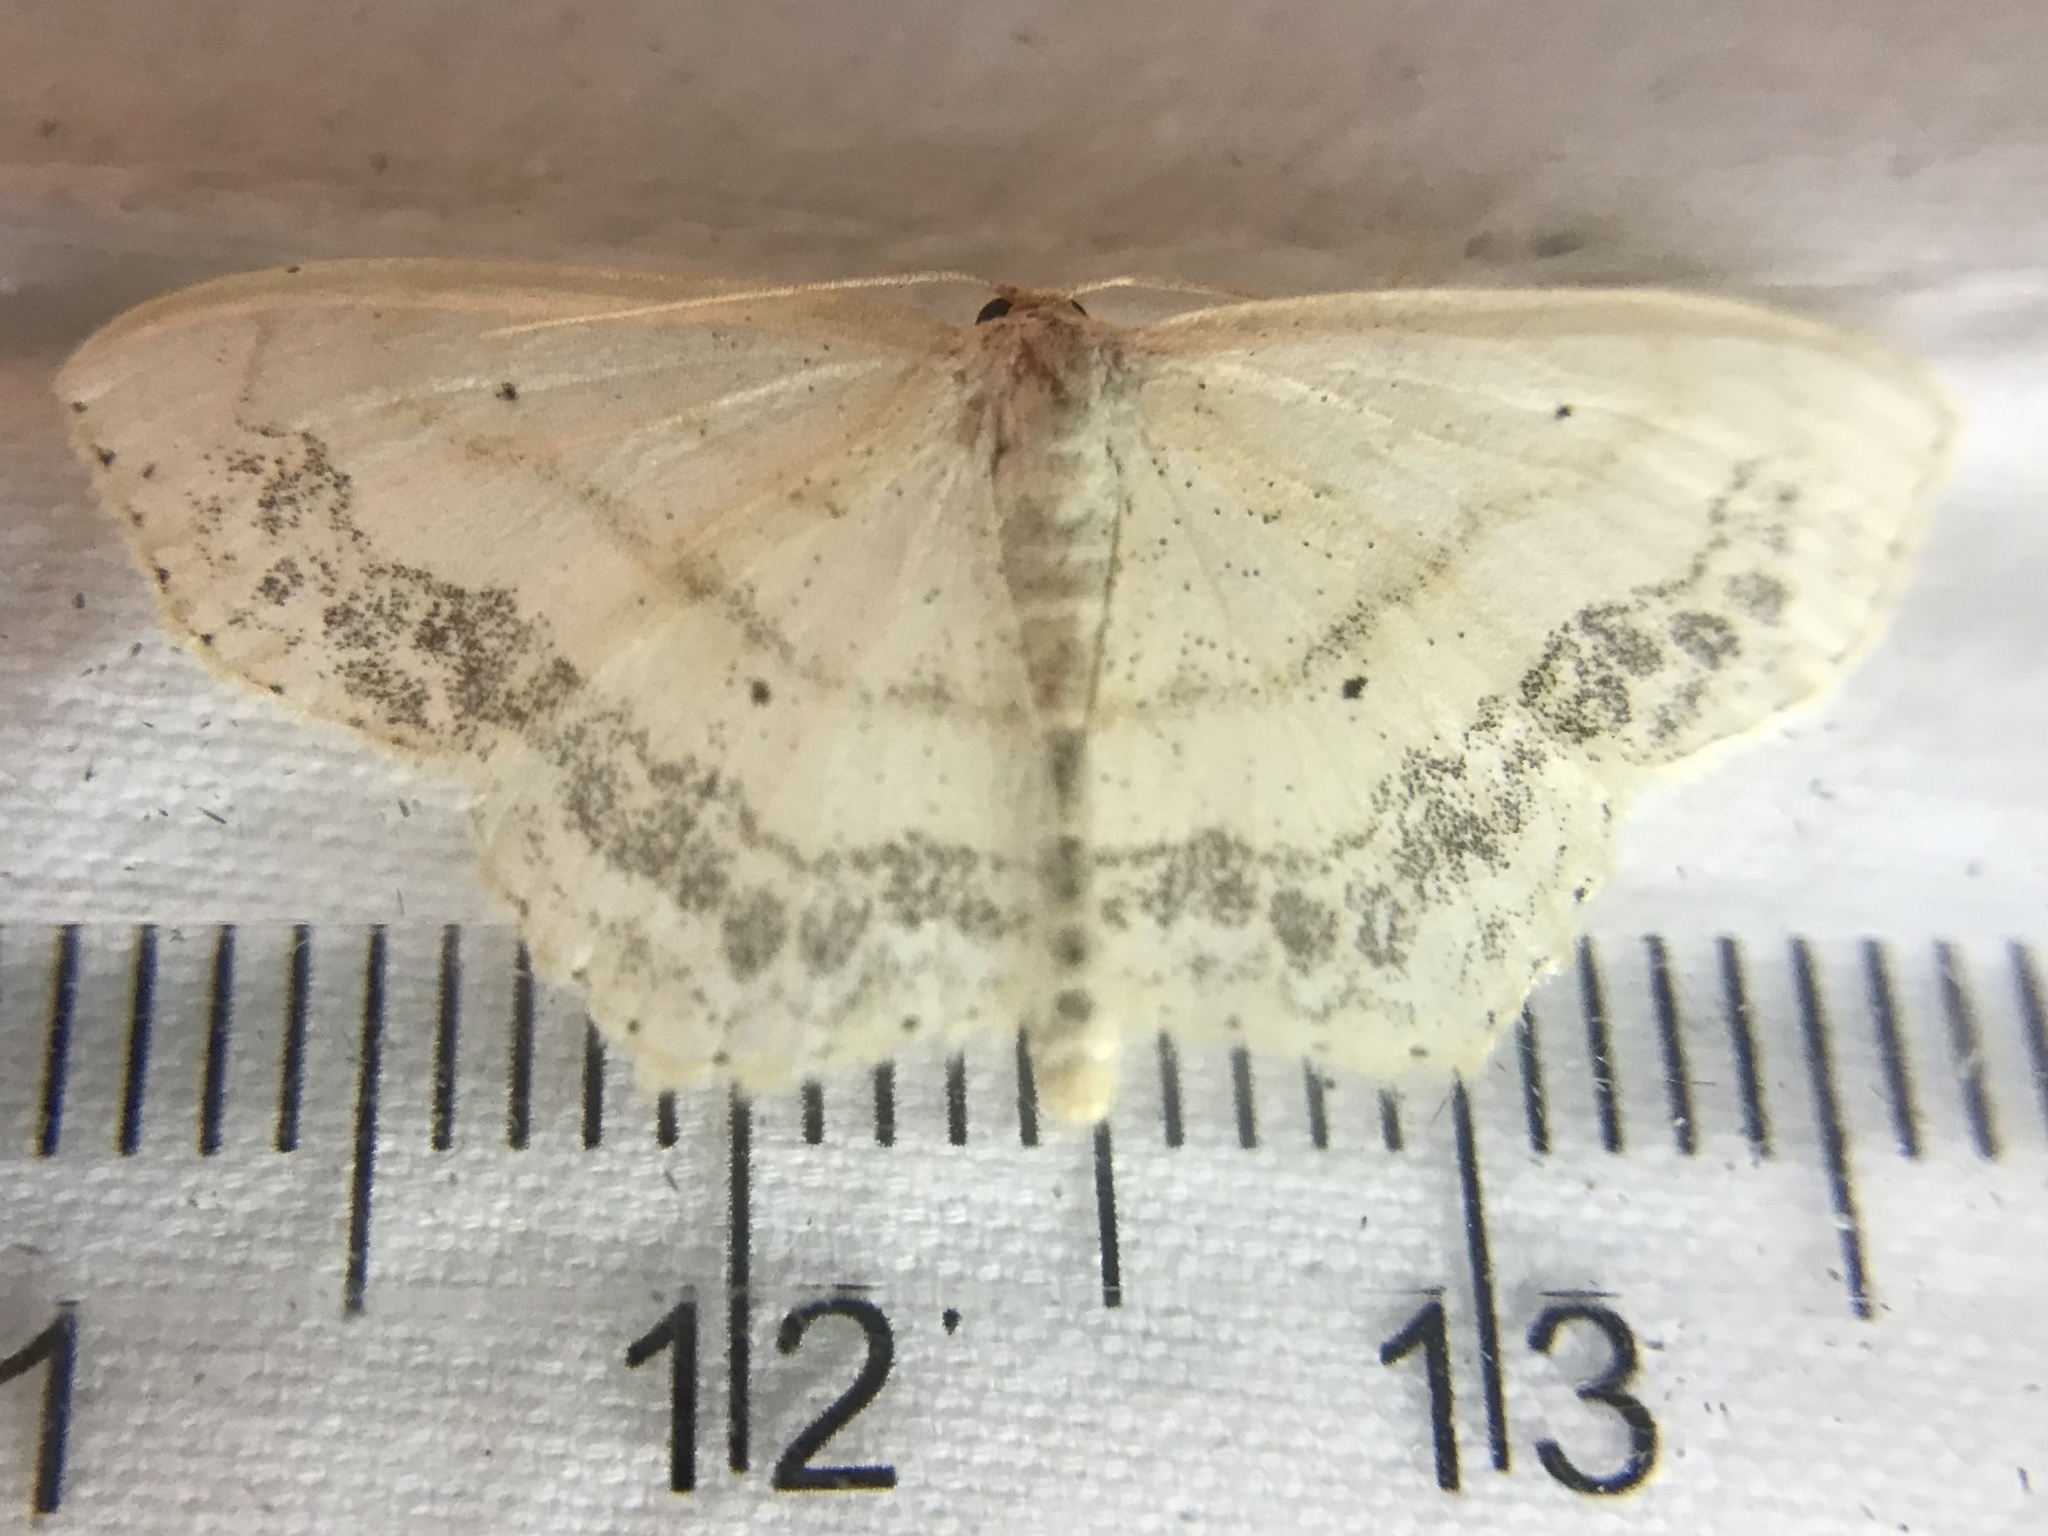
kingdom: Animalia
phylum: Arthropoda
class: Insecta
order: Lepidoptera
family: Geometridae
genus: Scopula
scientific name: Scopula limboundata
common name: Large lace border
